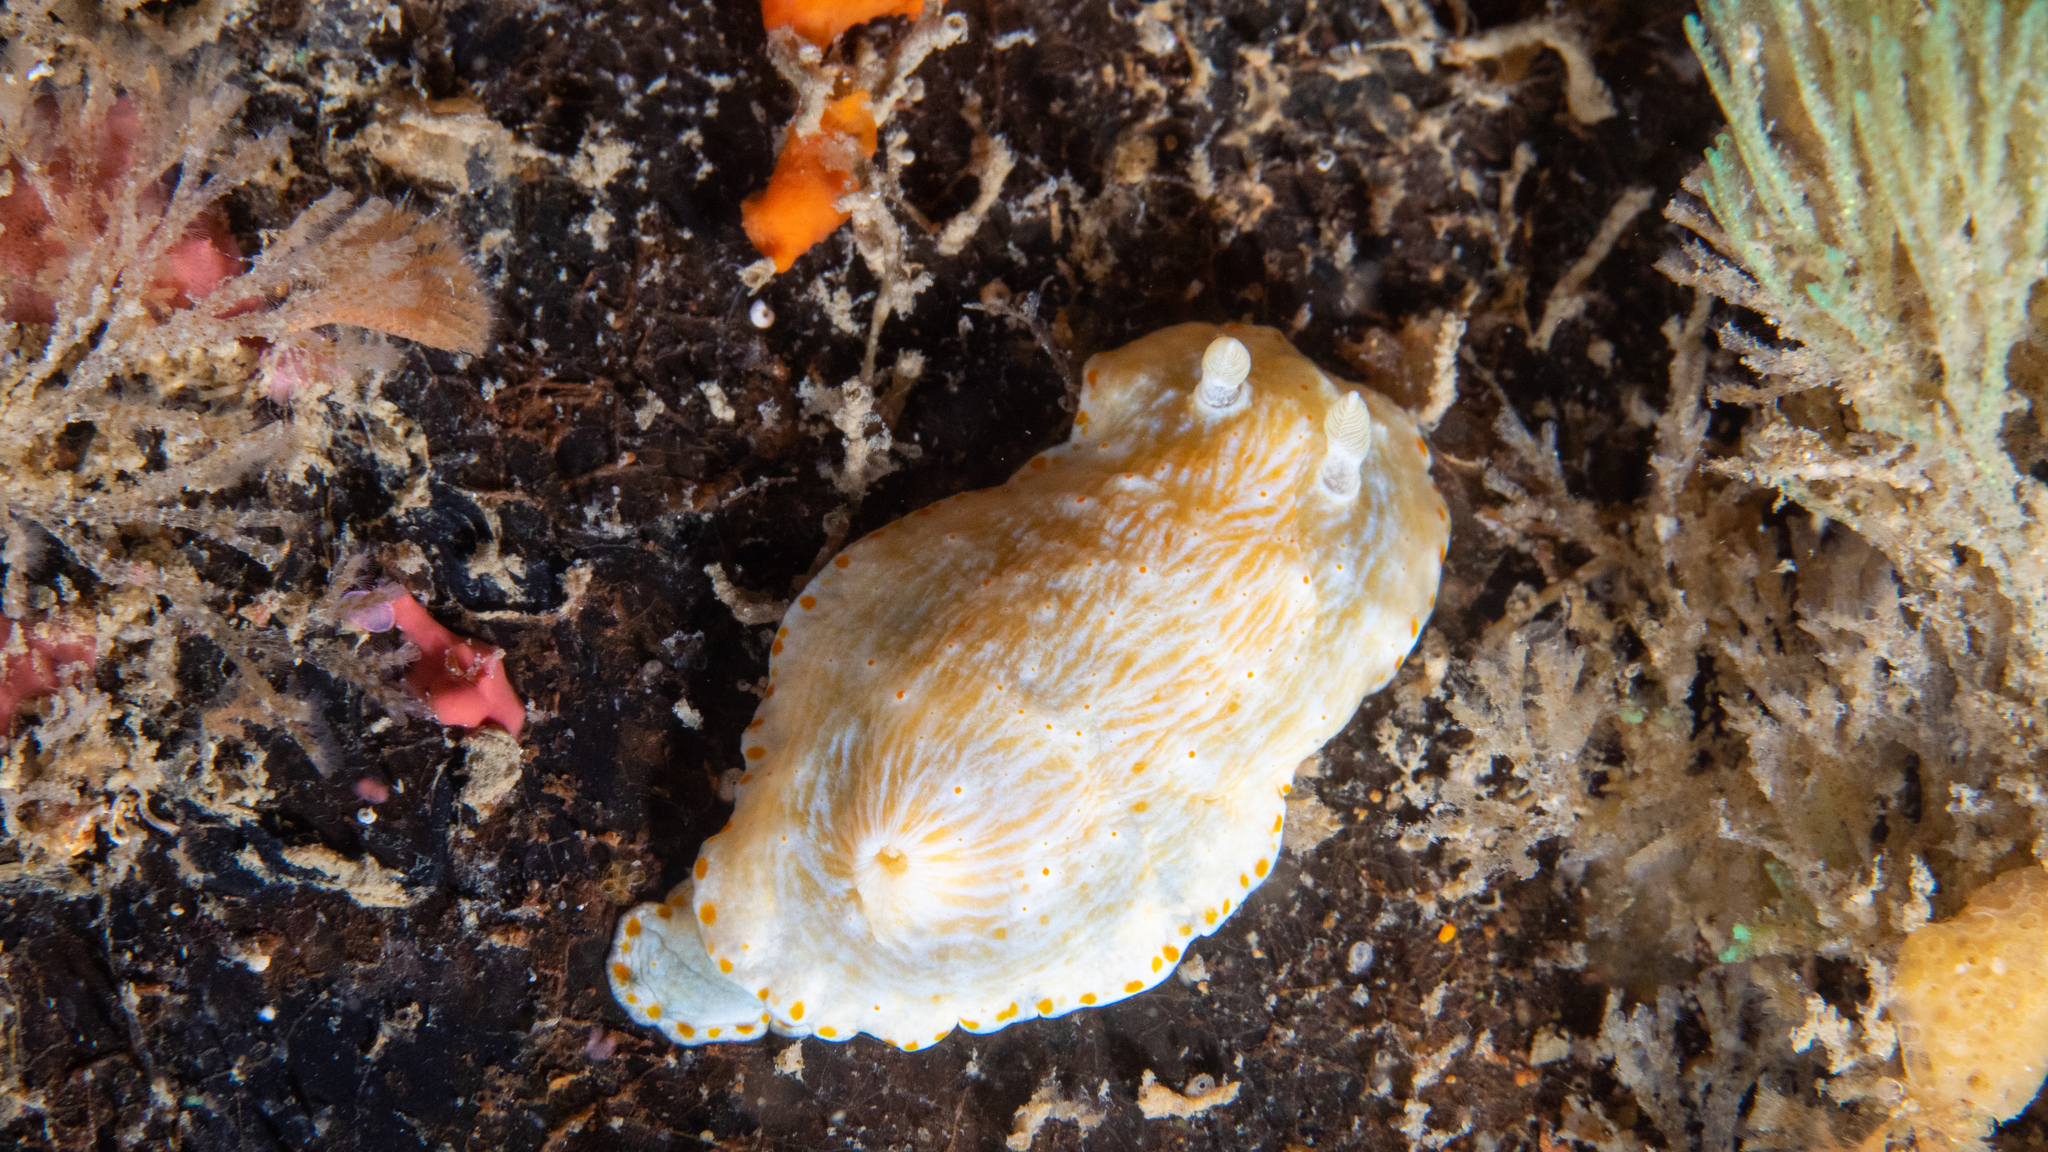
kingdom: Animalia
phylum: Mollusca
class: Gastropoda
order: Nudibranchia
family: Chromodorididae
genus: Goniobranchus
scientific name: Goniobranchus epicurius
